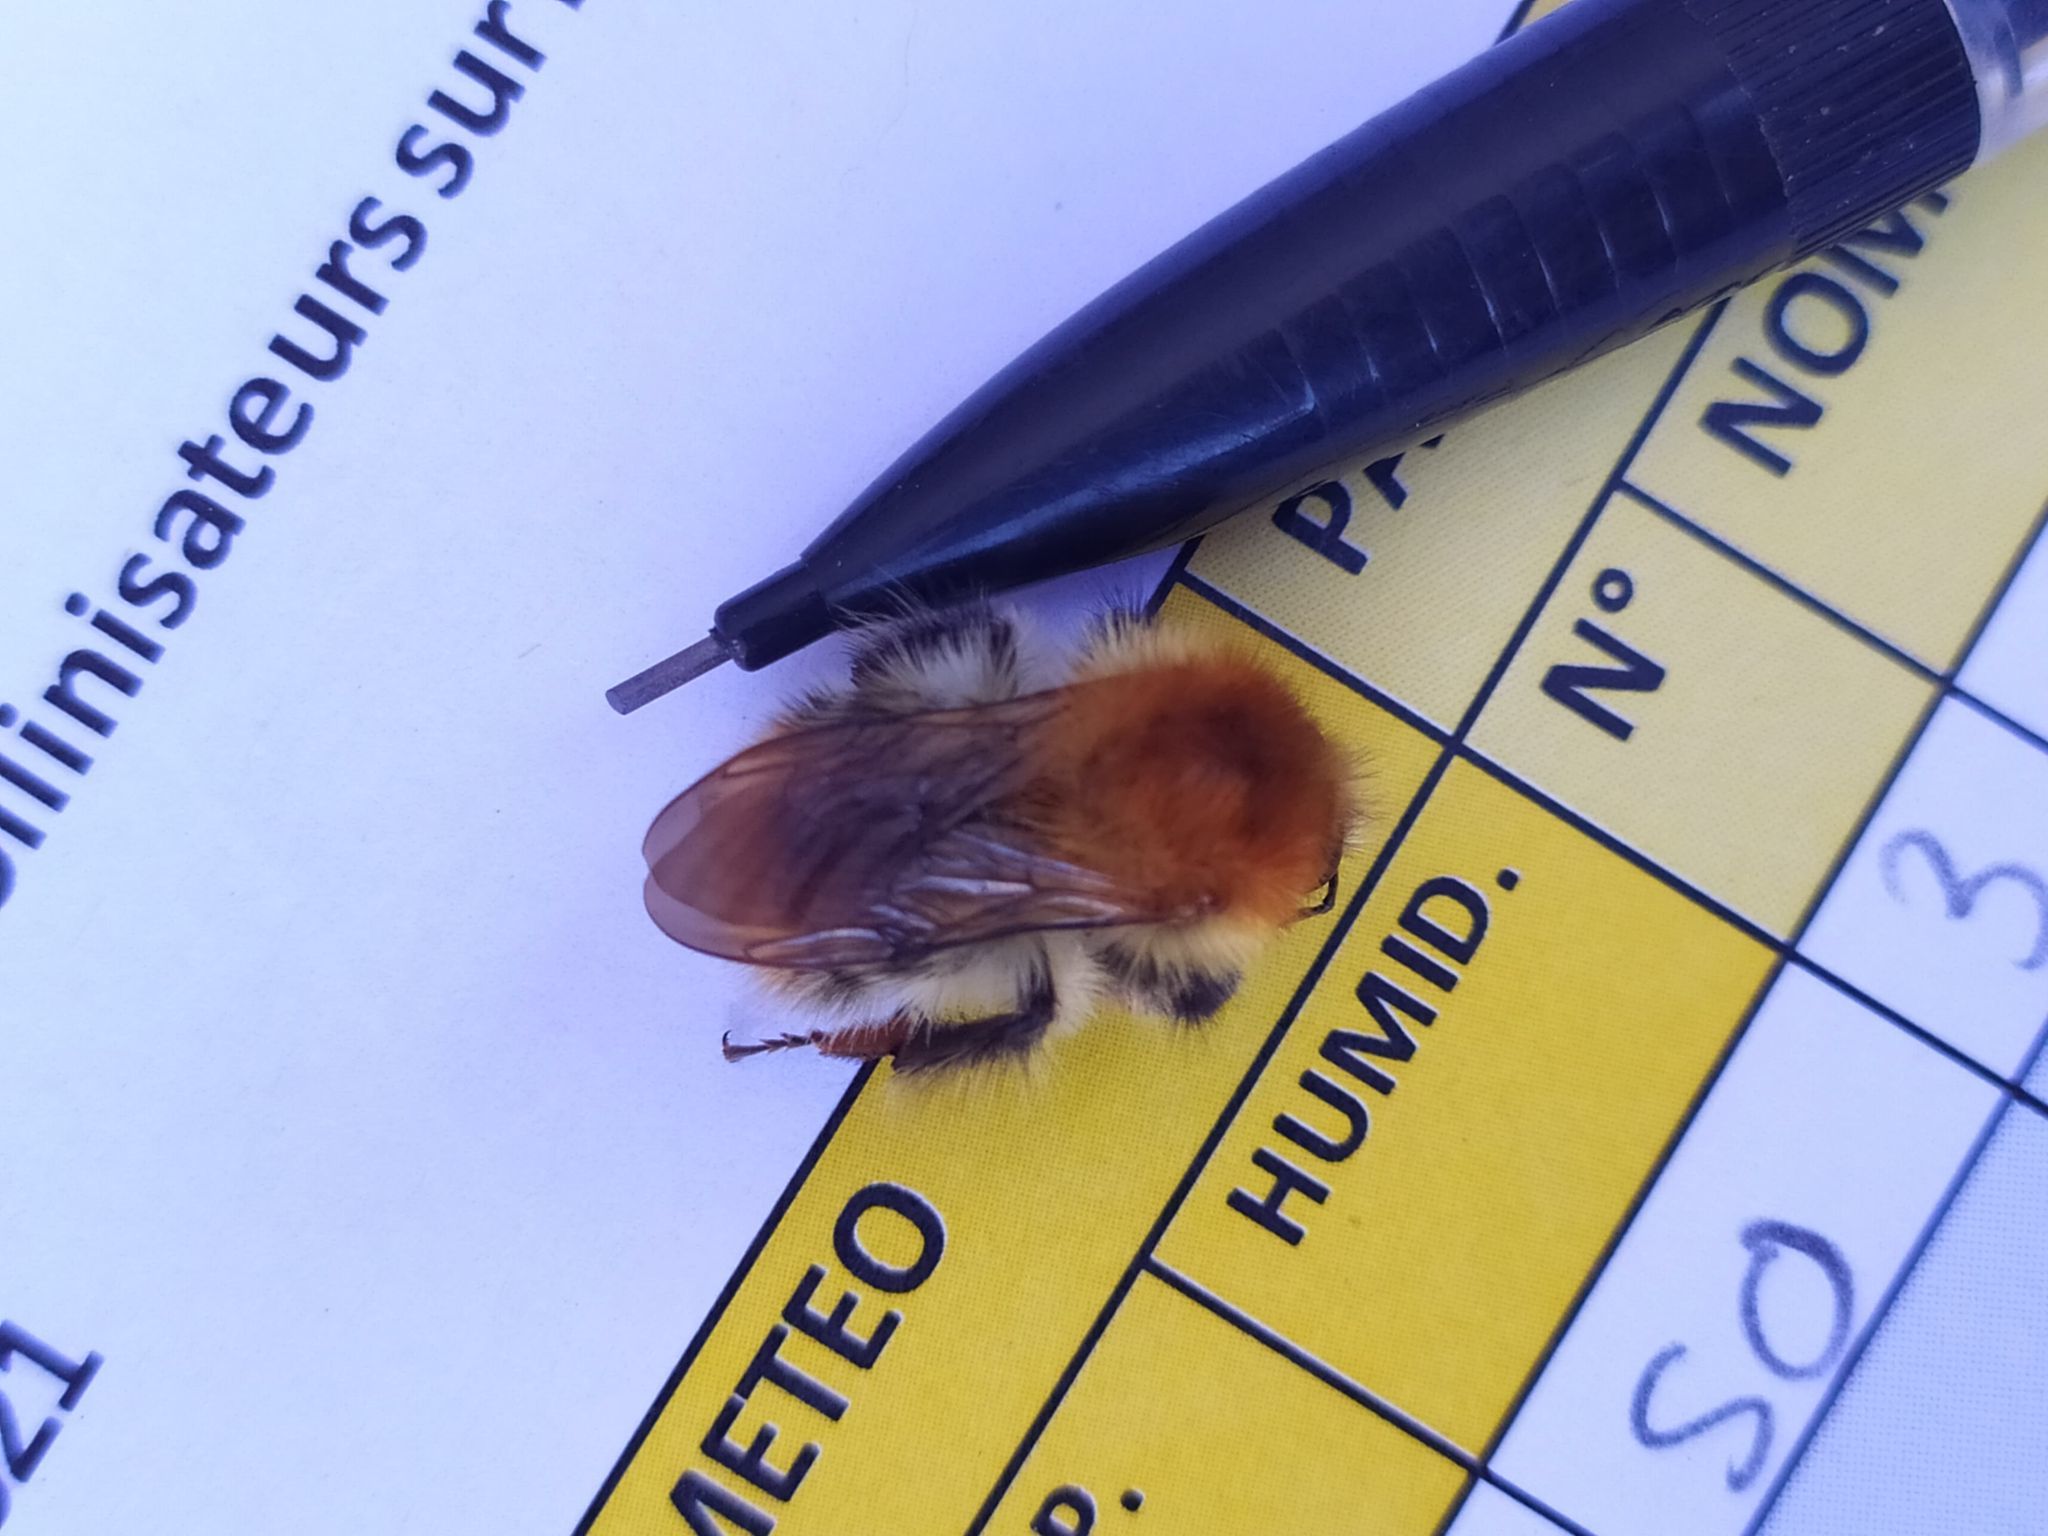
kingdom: Animalia
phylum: Arthropoda
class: Insecta
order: Hymenoptera
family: Apidae
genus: Bombus
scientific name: Bombus pascuorum
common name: Common carder bee
